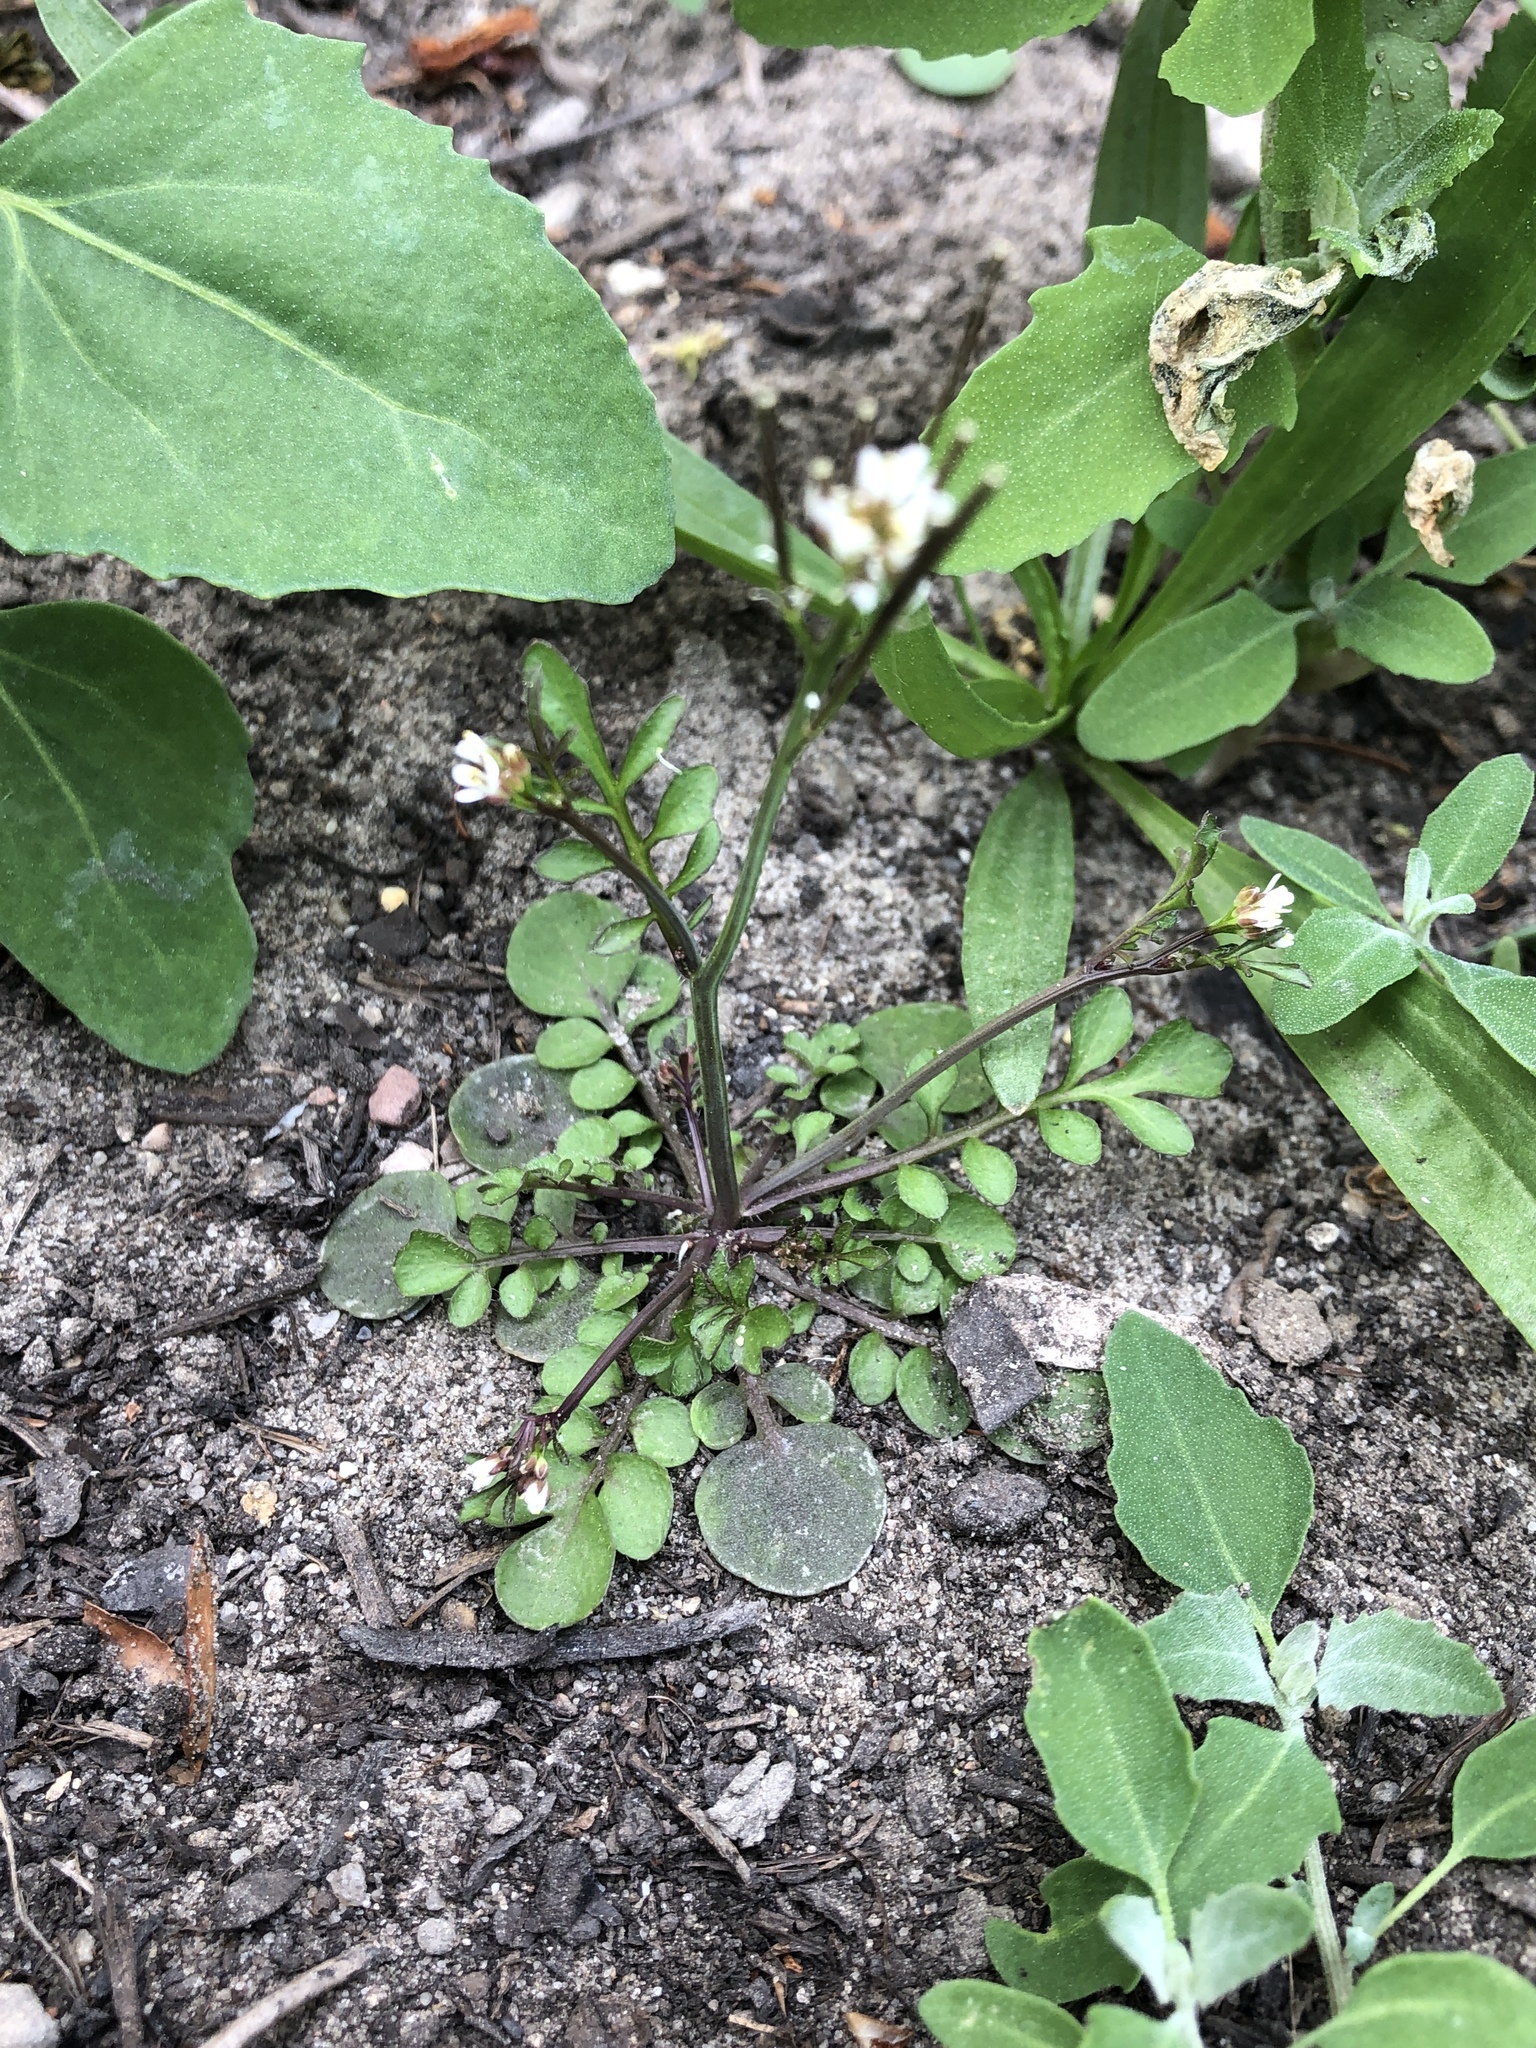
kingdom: Plantae
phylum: Tracheophyta
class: Magnoliopsida
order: Brassicales
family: Brassicaceae
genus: Cardamine
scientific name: Cardamine hirsuta
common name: Hairy bittercress
